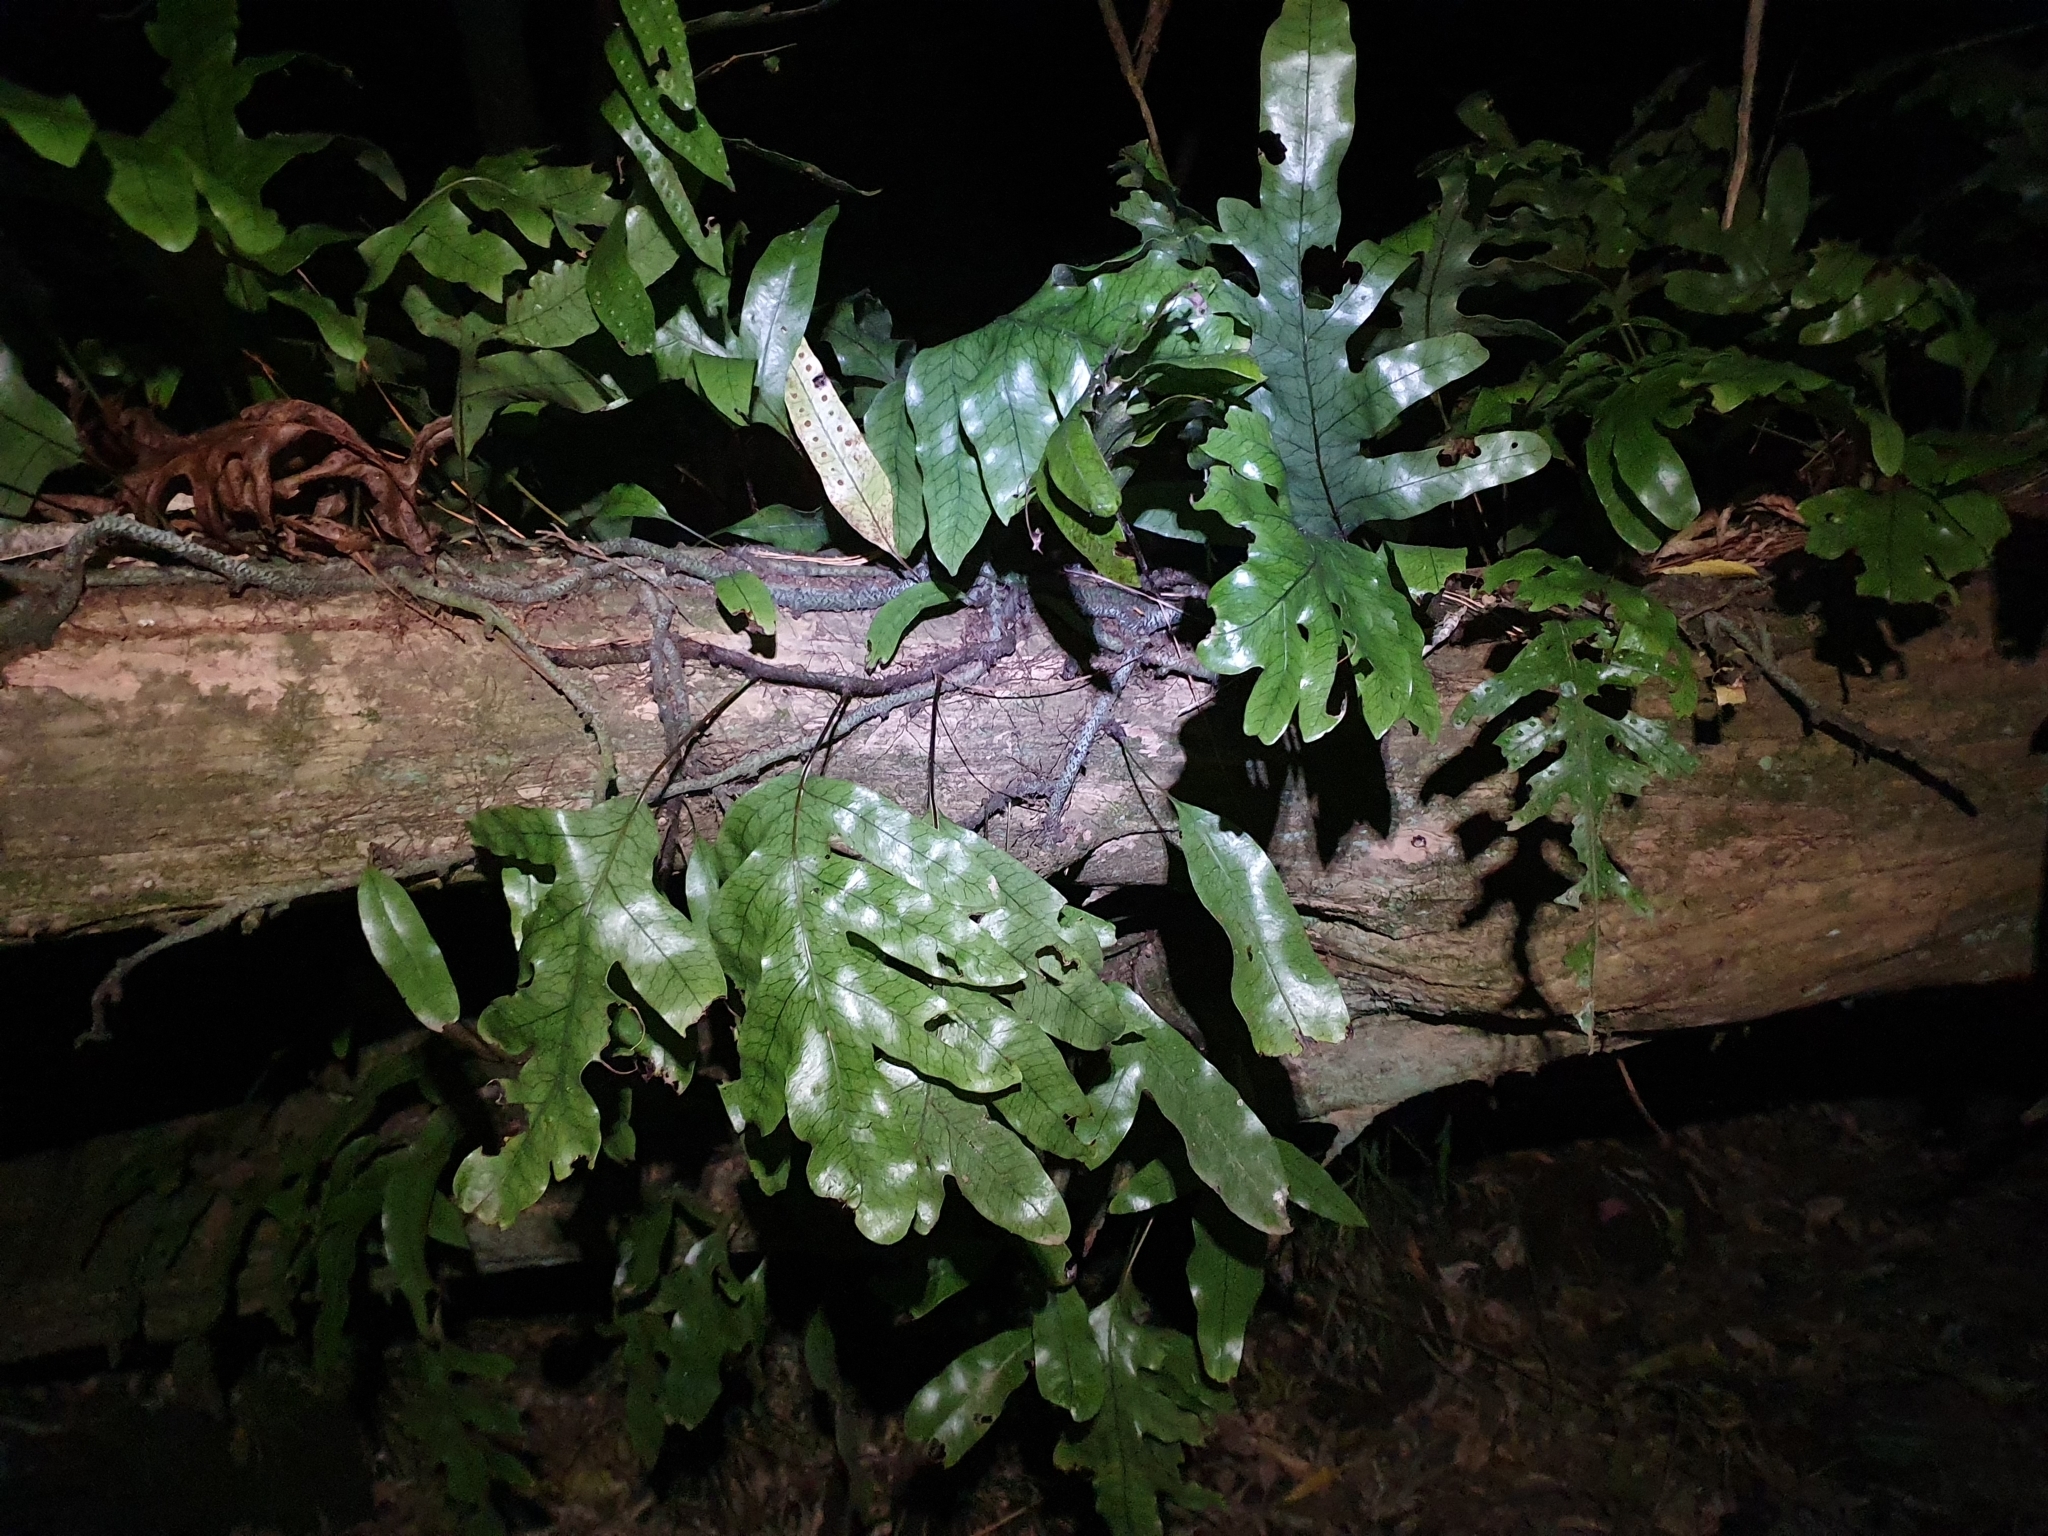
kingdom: Plantae
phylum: Tracheophyta
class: Polypodiopsida
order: Polypodiales
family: Polypodiaceae
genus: Lecanopteris
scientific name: Lecanopteris pustulata
